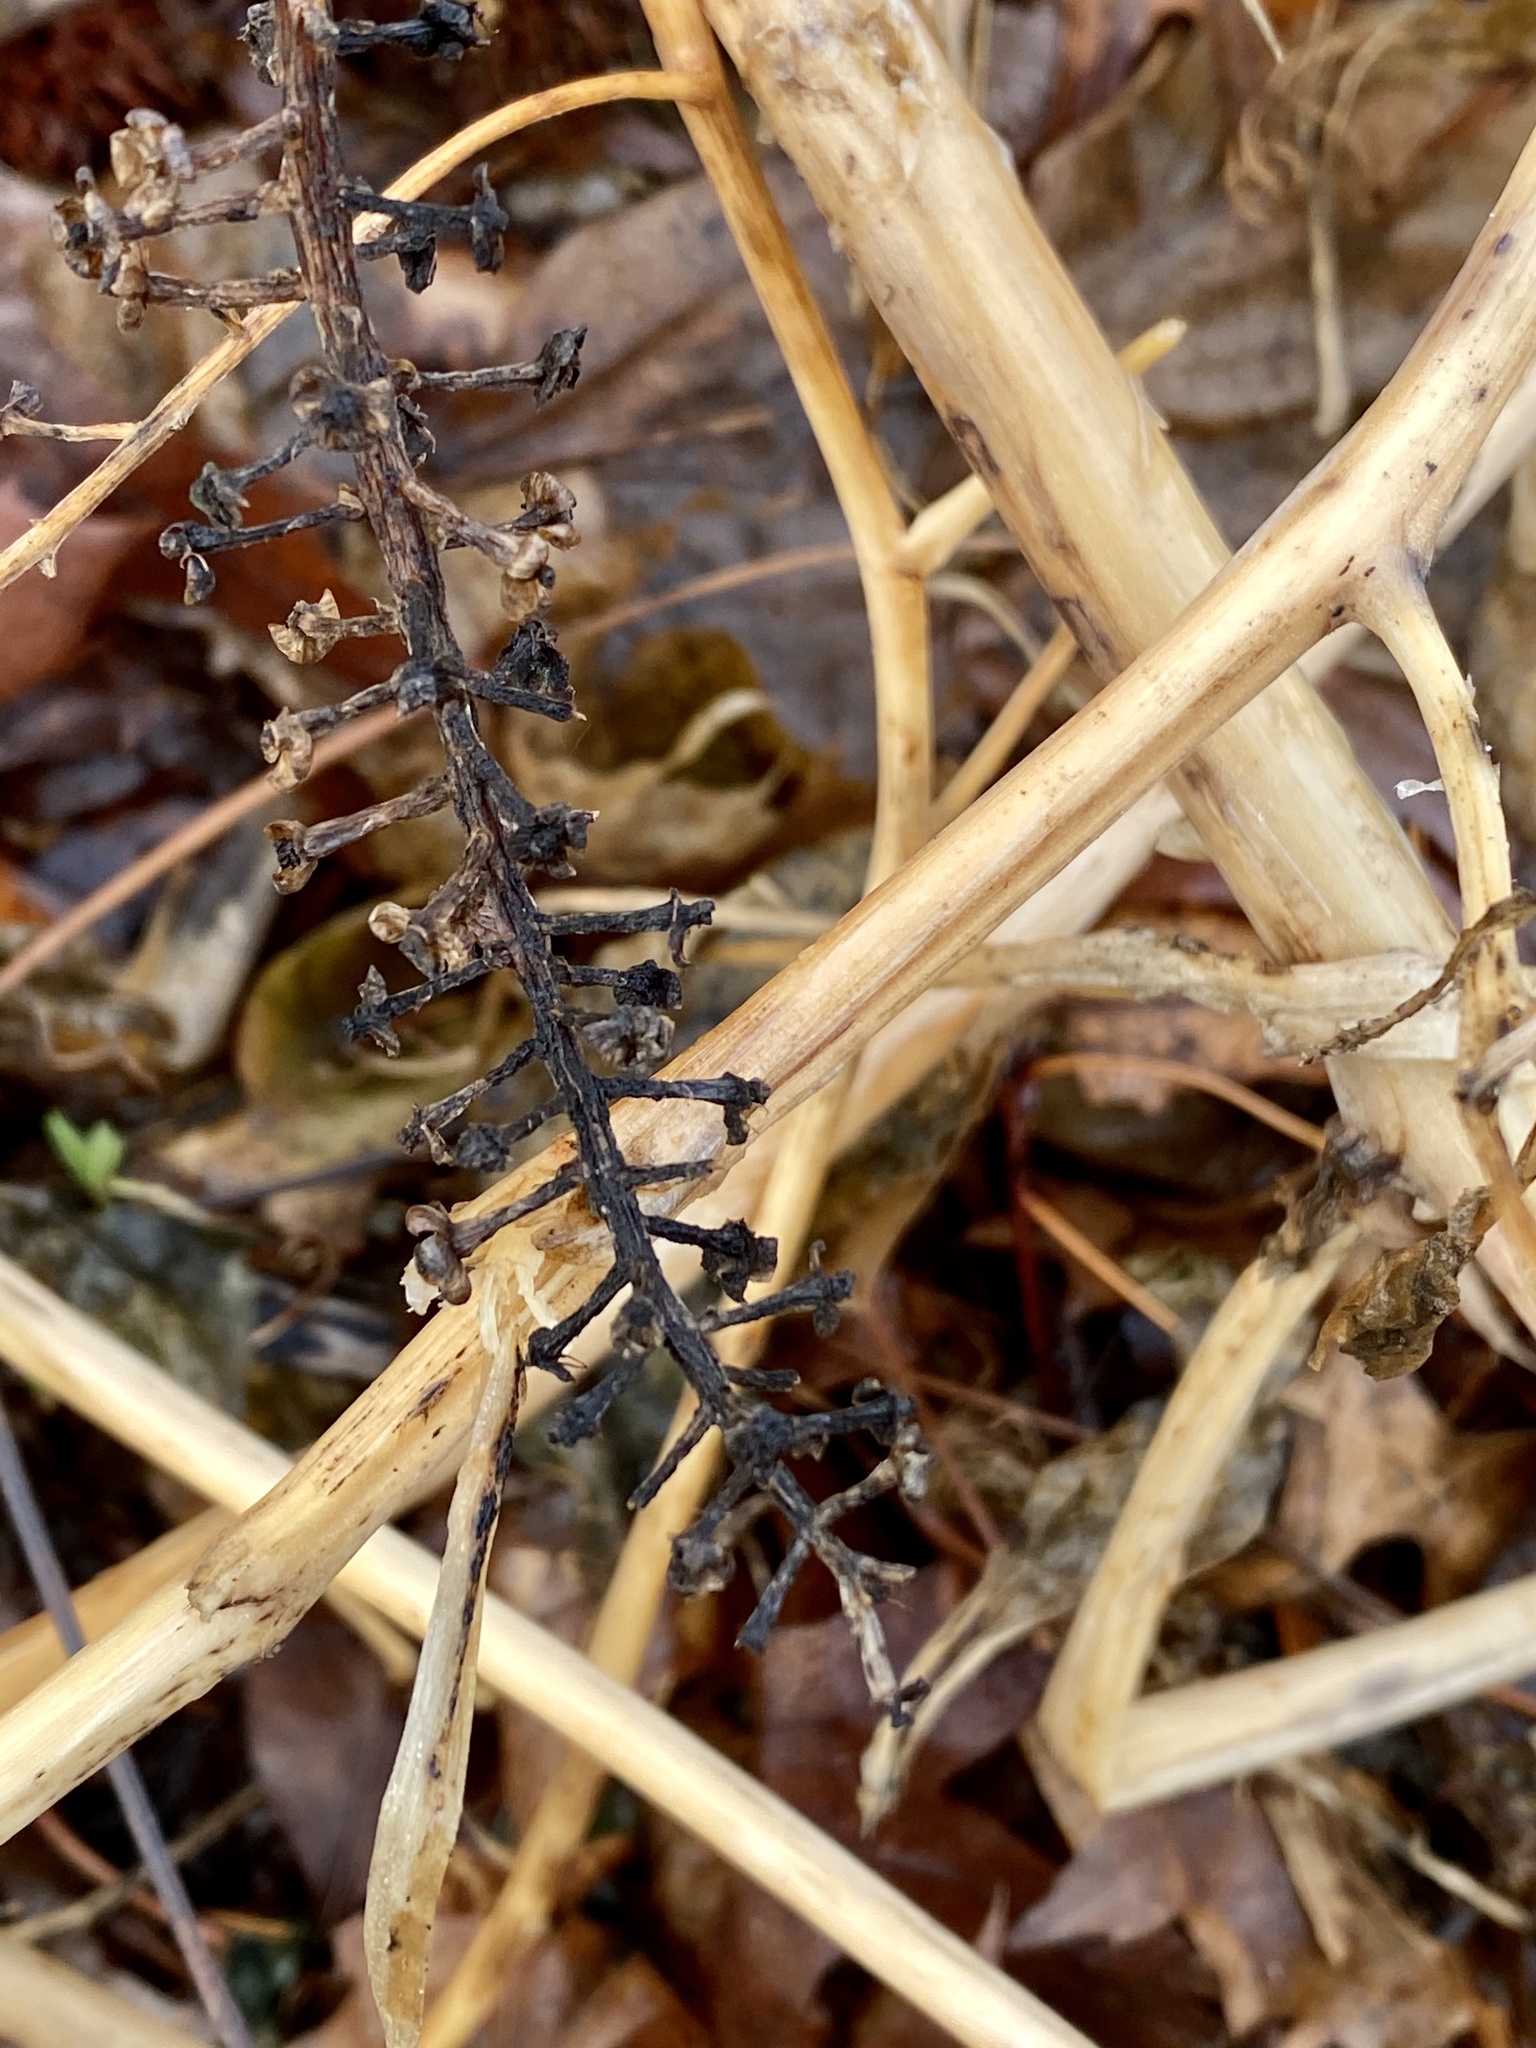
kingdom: Plantae
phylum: Tracheophyta
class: Magnoliopsida
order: Caryophyllales
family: Phytolaccaceae
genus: Phytolacca
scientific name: Phytolacca americana
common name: American pokeweed
